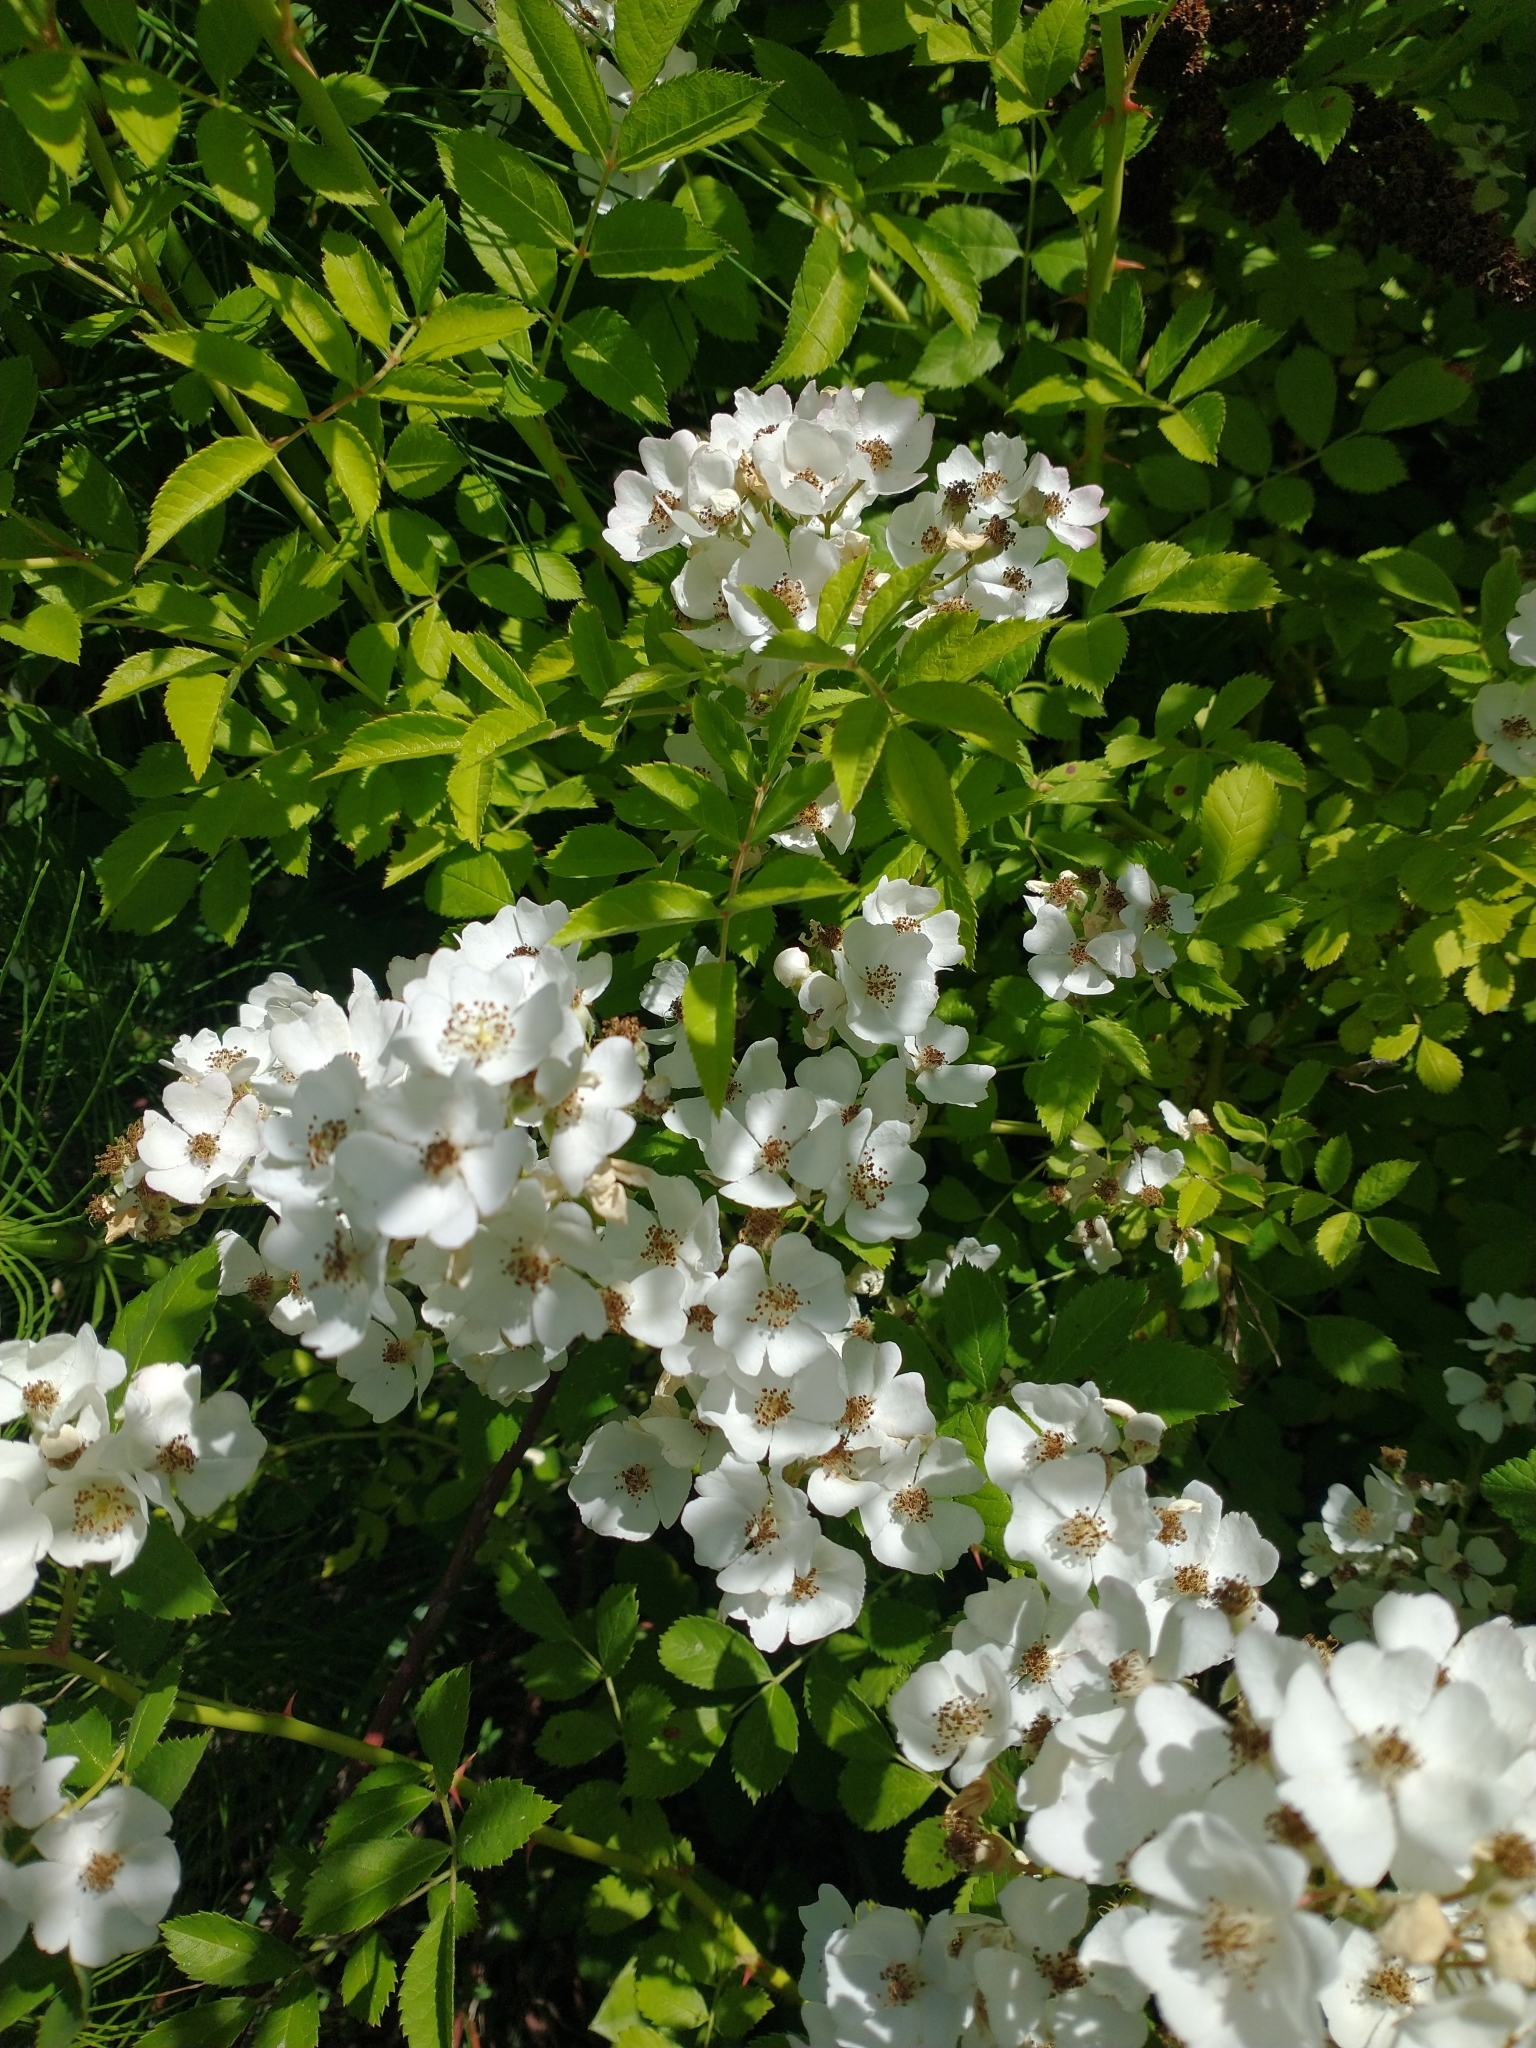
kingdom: Plantae
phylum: Tracheophyta
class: Magnoliopsida
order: Rosales
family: Rosaceae
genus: Rosa
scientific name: Rosa multiflora
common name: Multiflora rose
